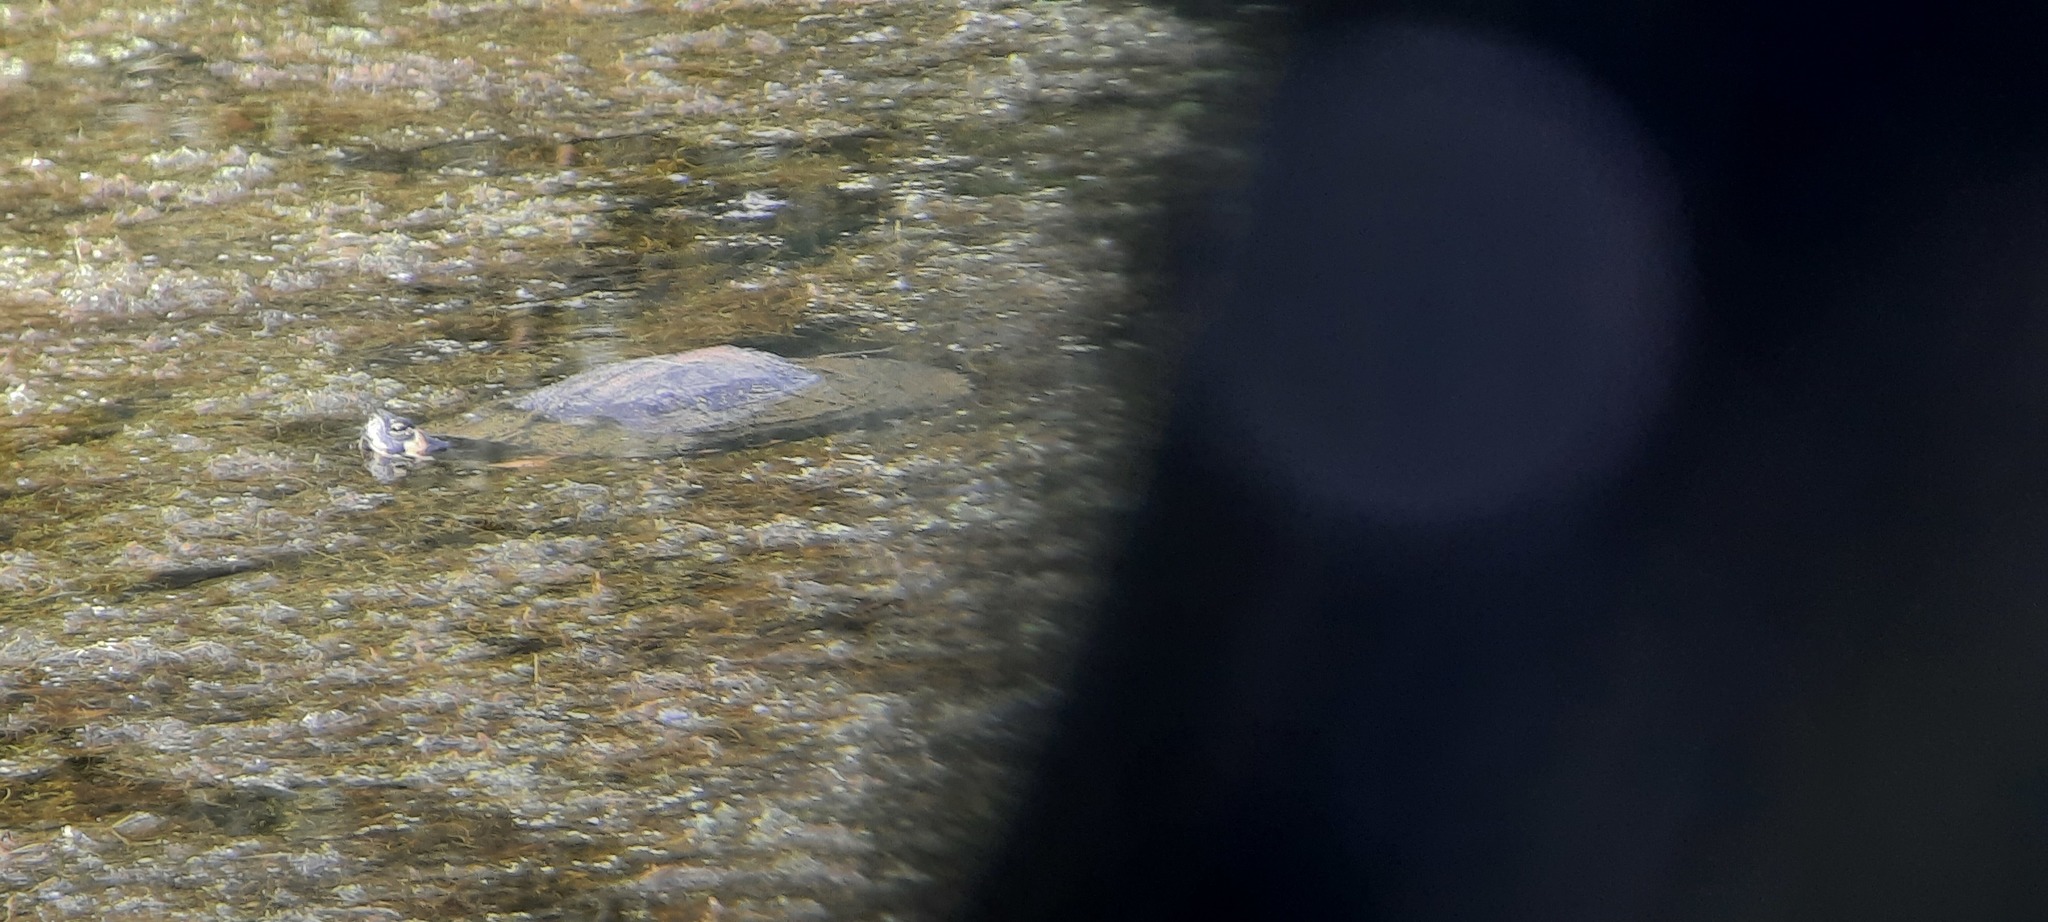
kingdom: Animalia
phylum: Chordata
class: Testudines
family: Emydidae
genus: Trachemys
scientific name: Trachemys scripta
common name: Slider
